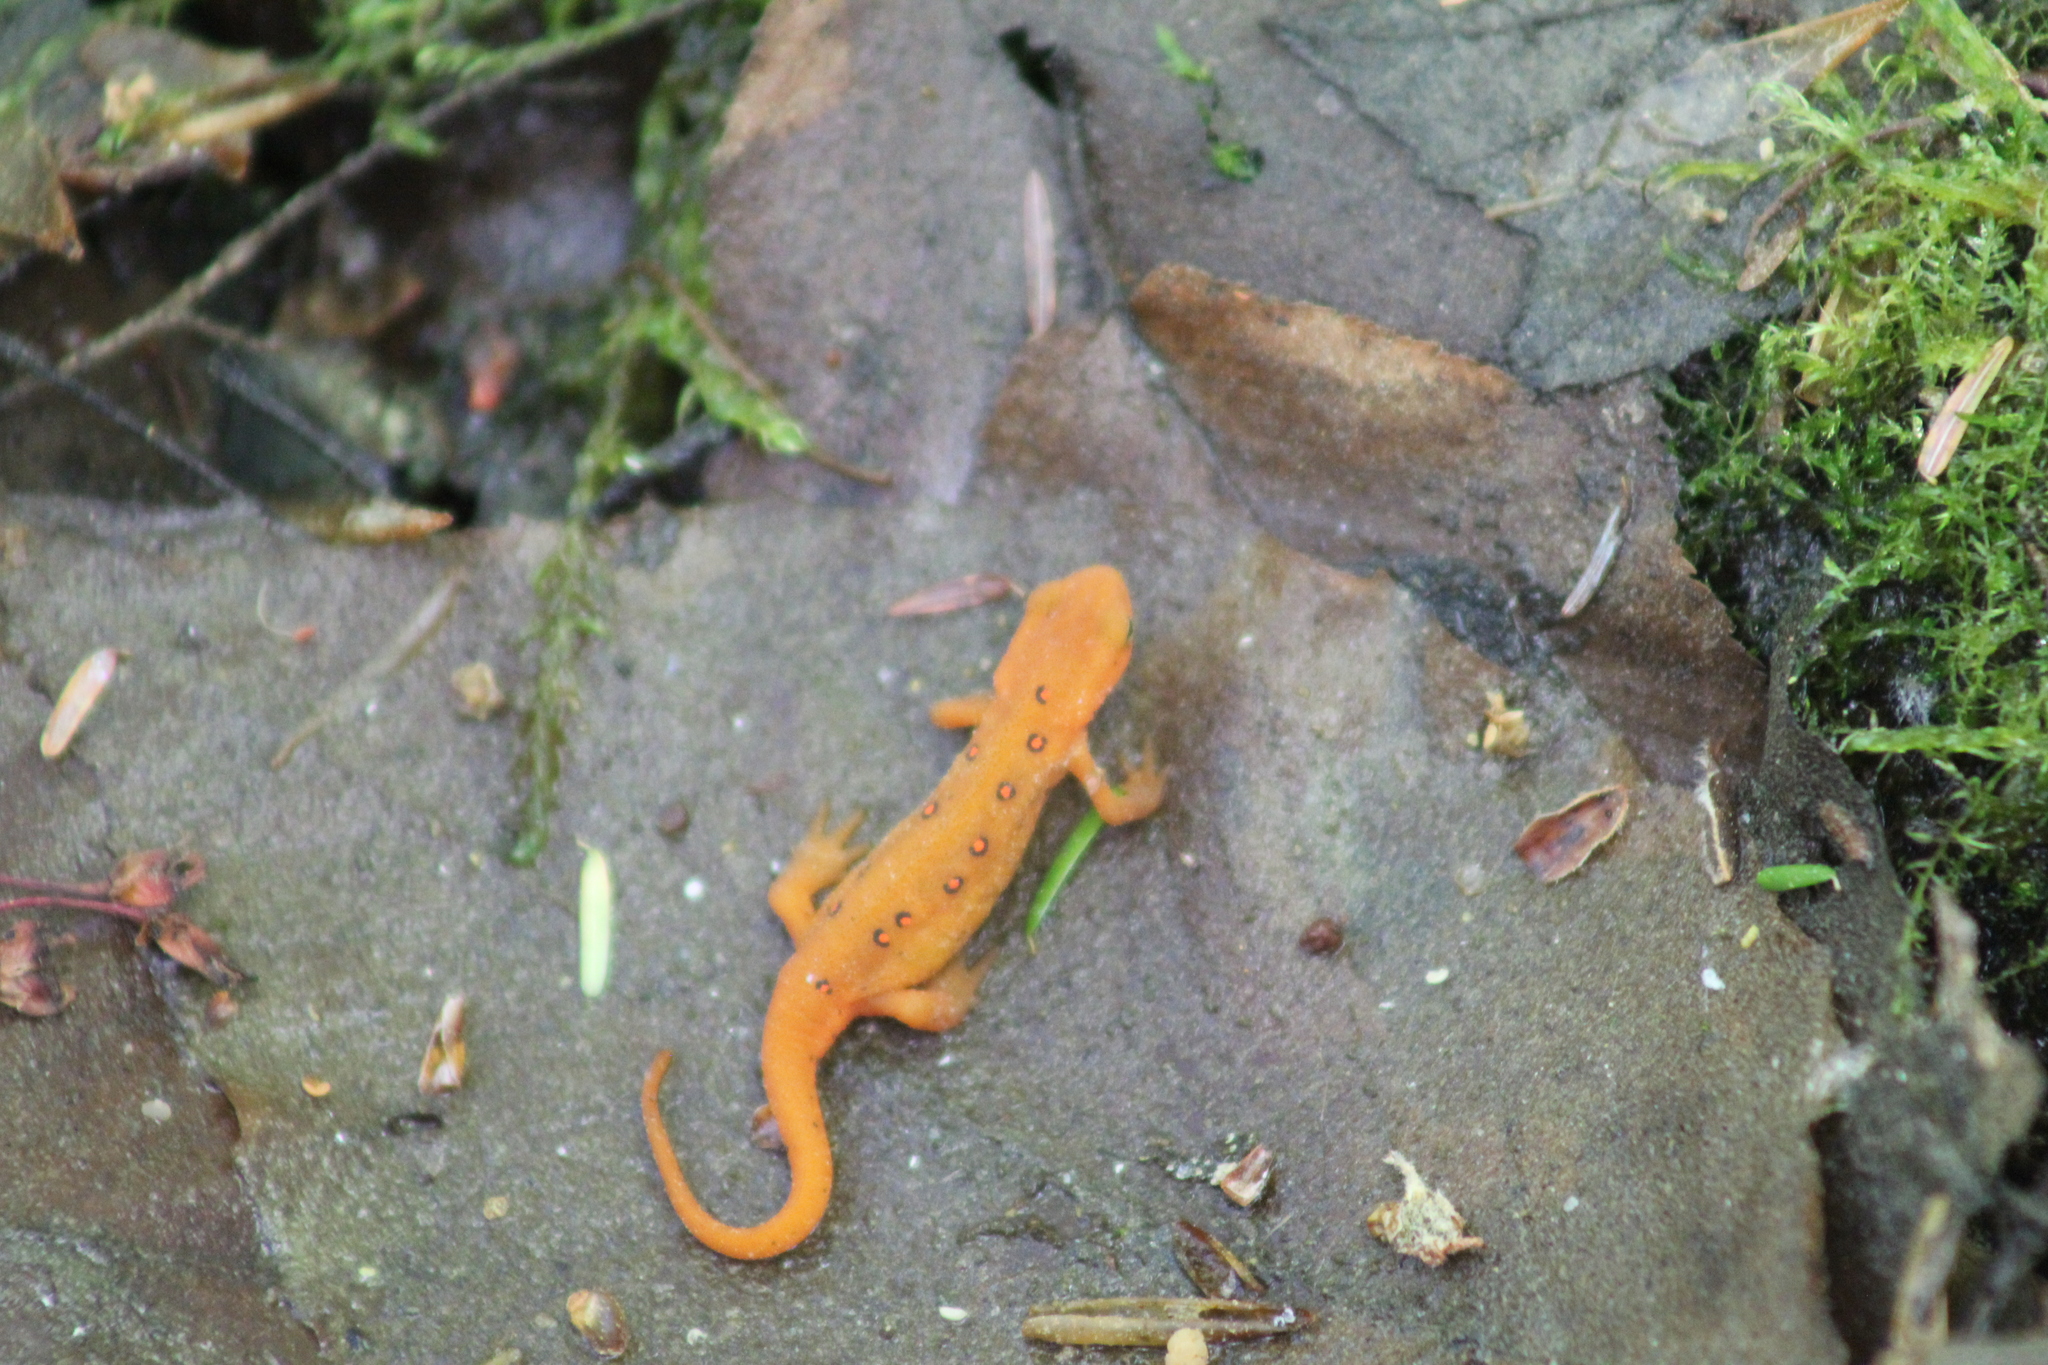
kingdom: Animalia
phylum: Chordata
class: Amphibia
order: Caudata
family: Salamandridae
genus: Notophthalmus
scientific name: Notophthalmus viridescens
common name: Eastern newt
